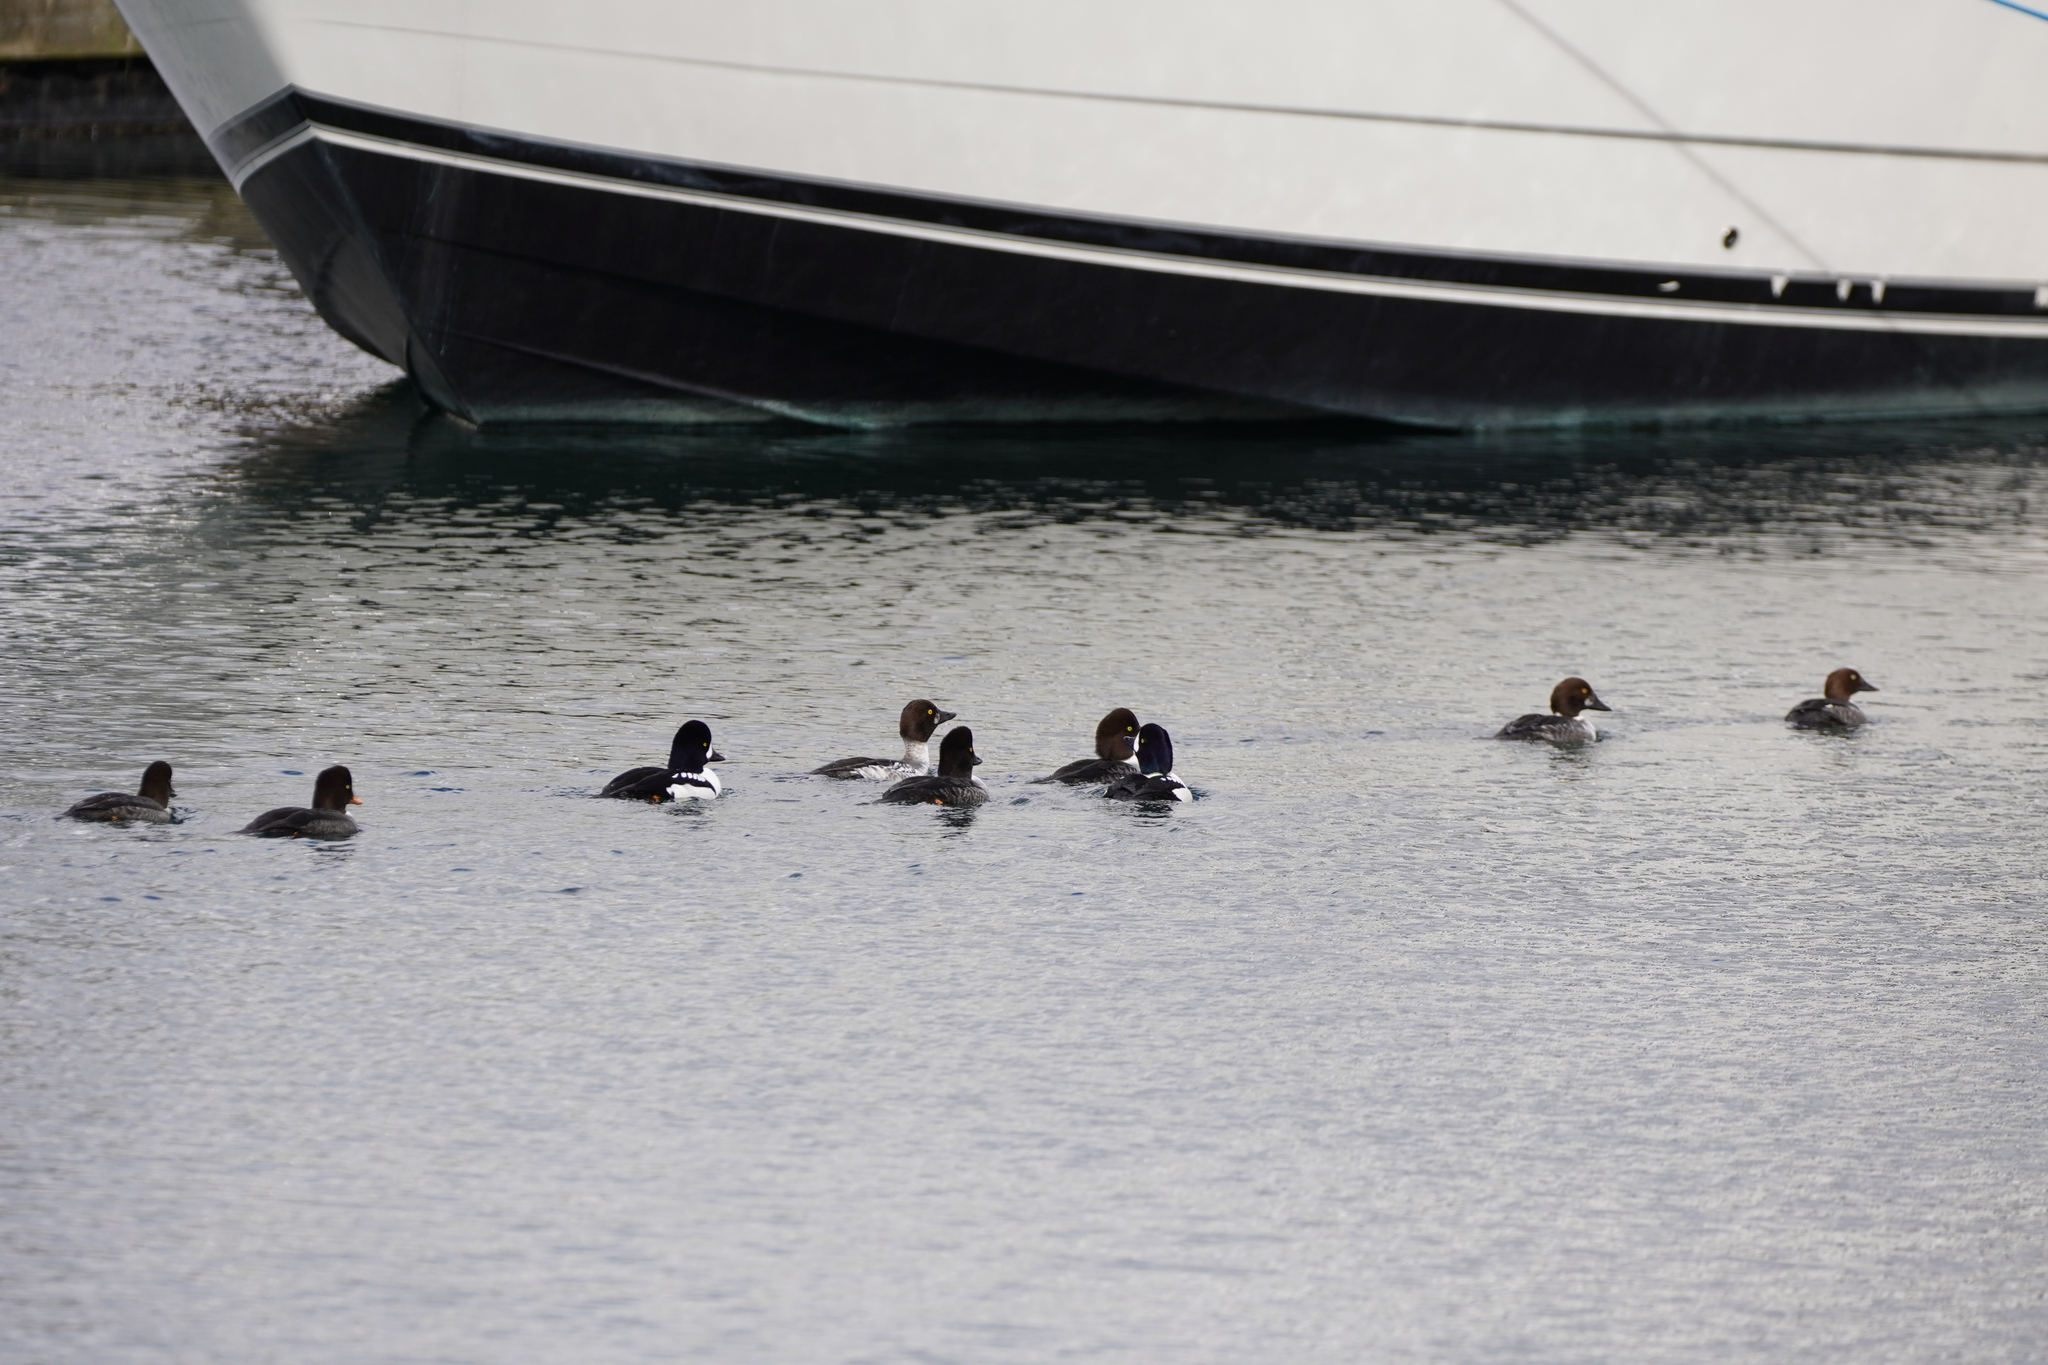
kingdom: Animalia
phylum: Chordata
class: Aves
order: Anseriformes
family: Anatidae
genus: Bucephala
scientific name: Bucephala islandica
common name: Barrow's goldeneye
